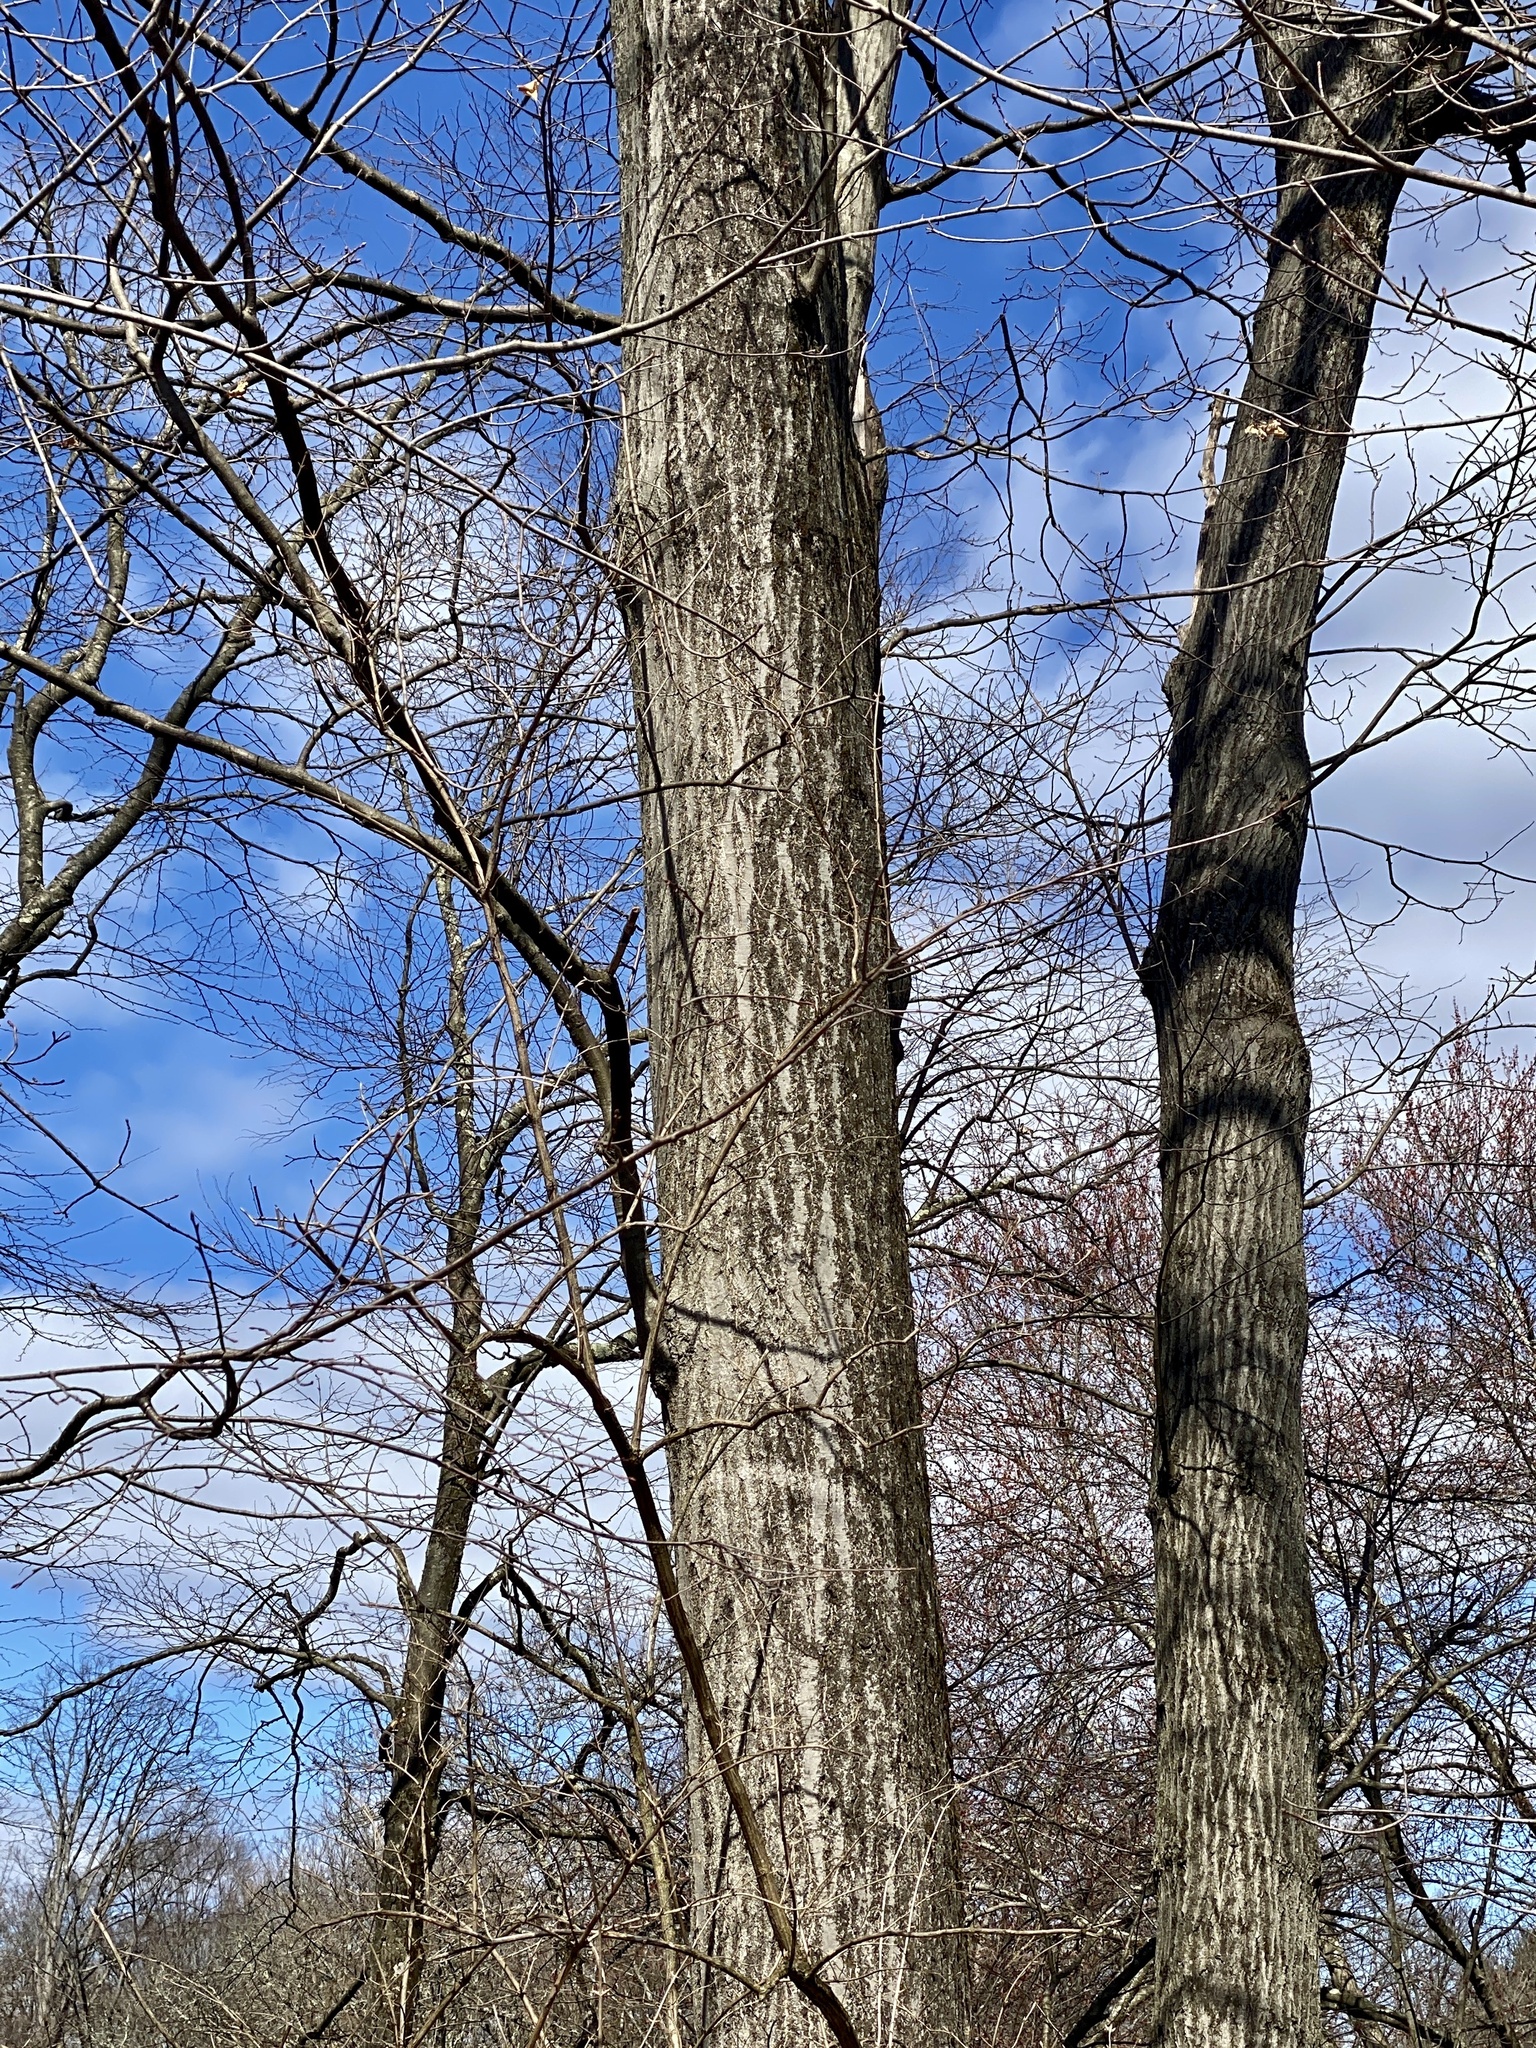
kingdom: Plantae
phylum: Tracheophyta
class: Magnoliopsida
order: Fagales
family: Fagaceae
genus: Quercus
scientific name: Quercus rubra
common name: Red oak
